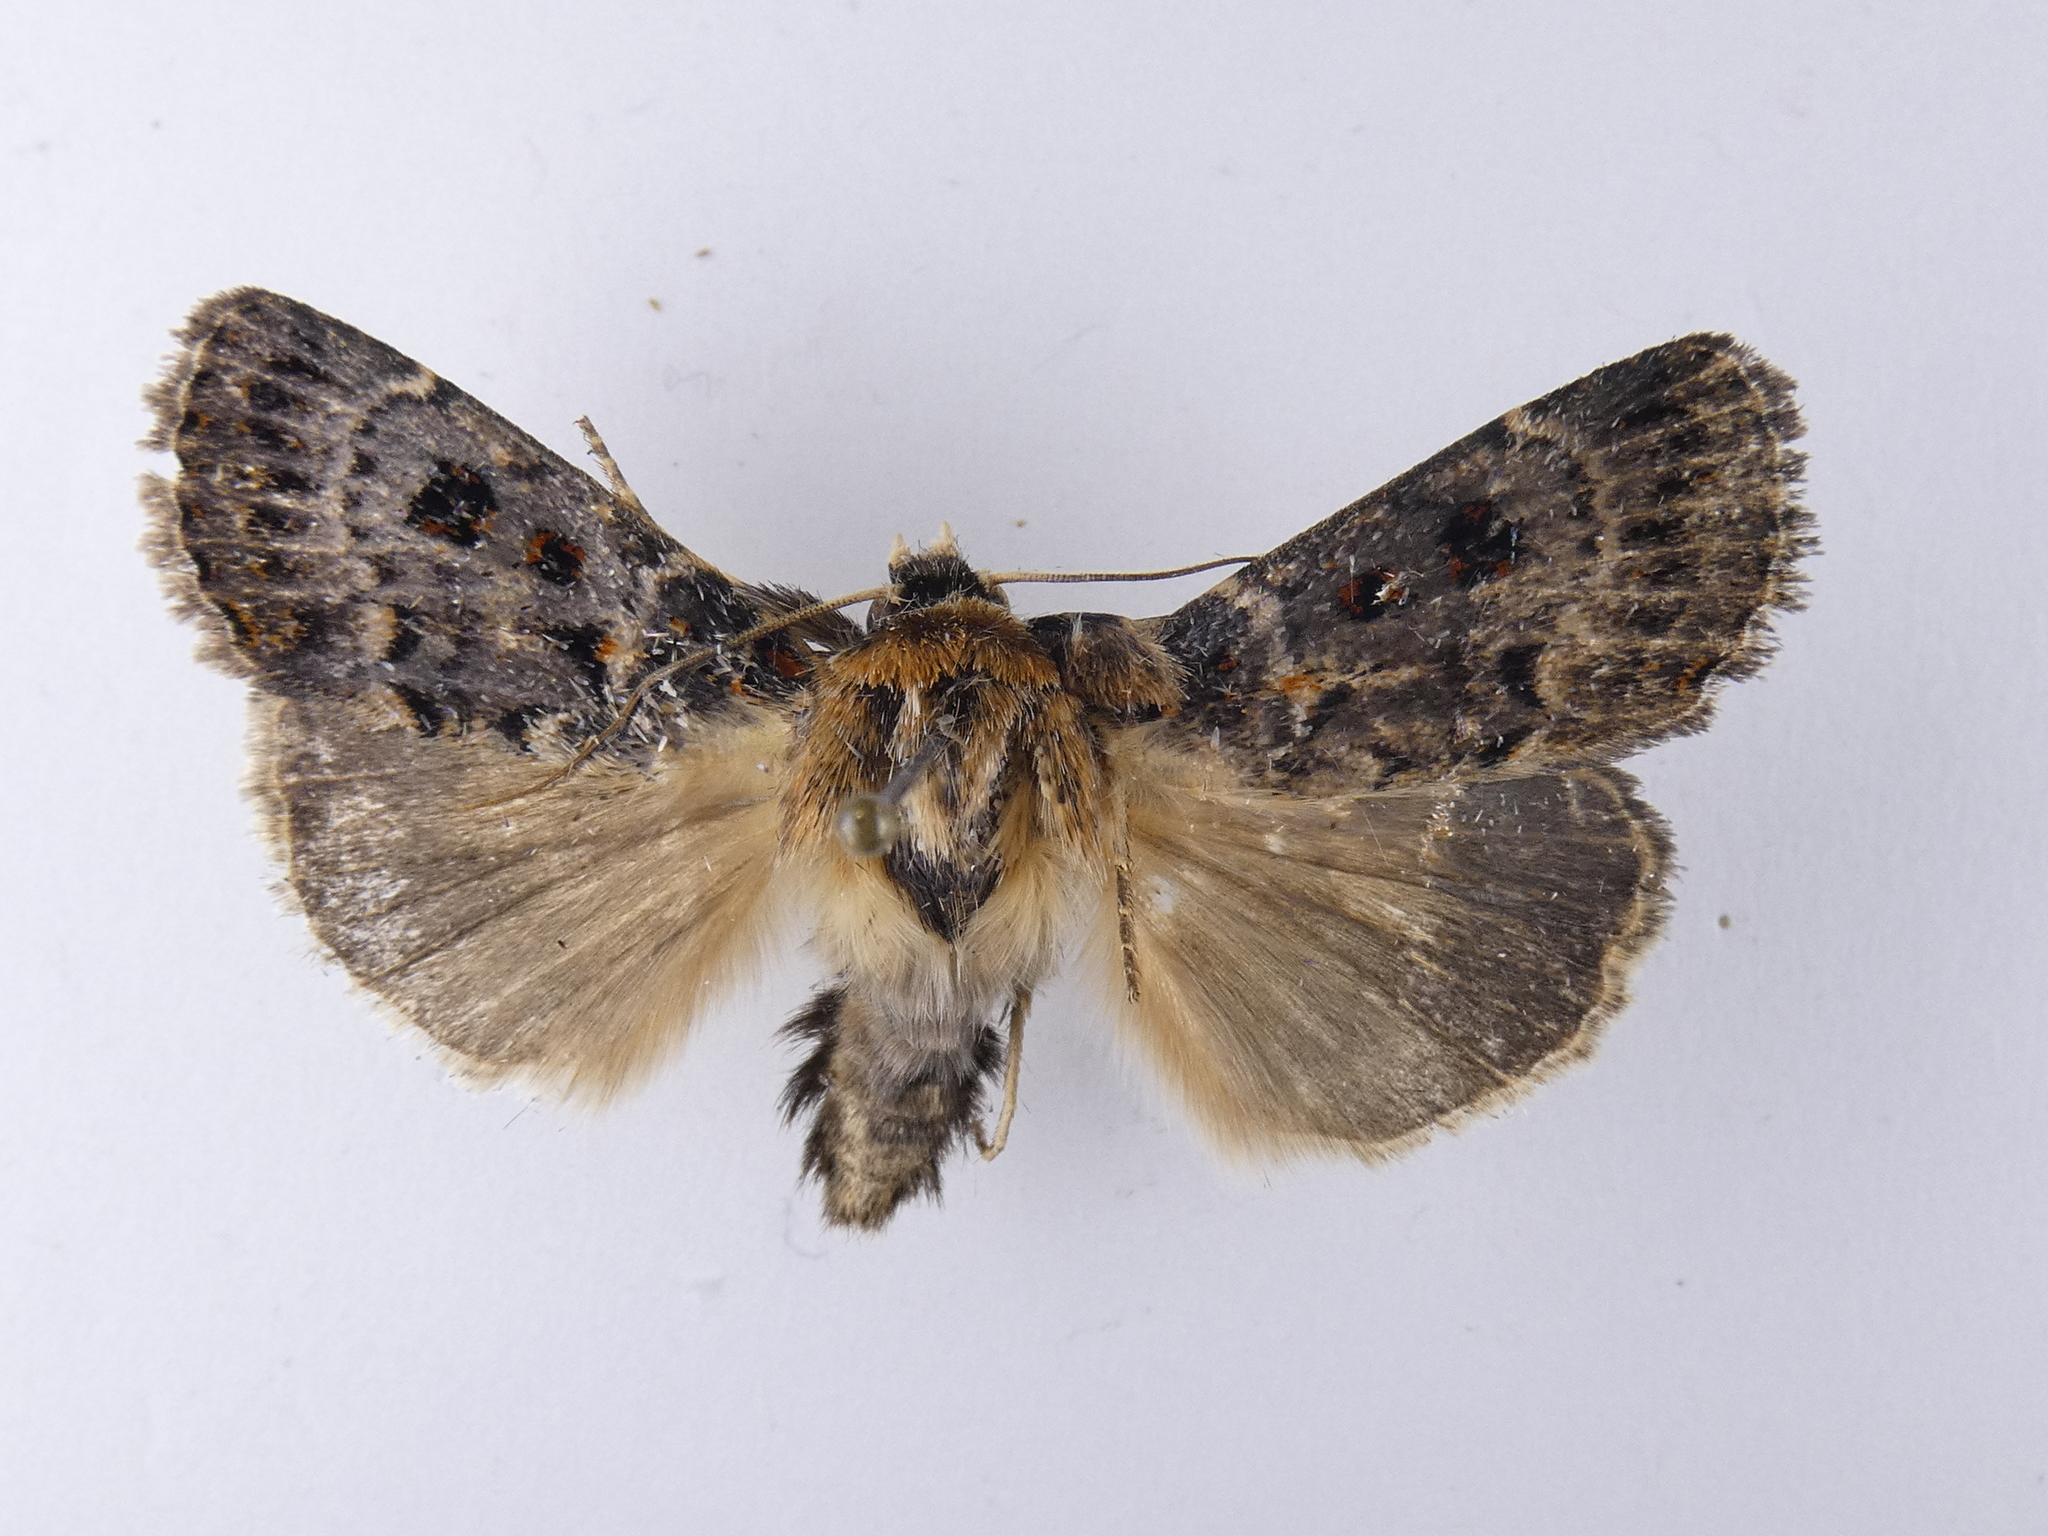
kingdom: Animalia
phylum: Arthropoda
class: Insecta
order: Lepidoptera
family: Noctuidae
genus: Proteuxoa
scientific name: Proteuxoa sanguinipuncta
